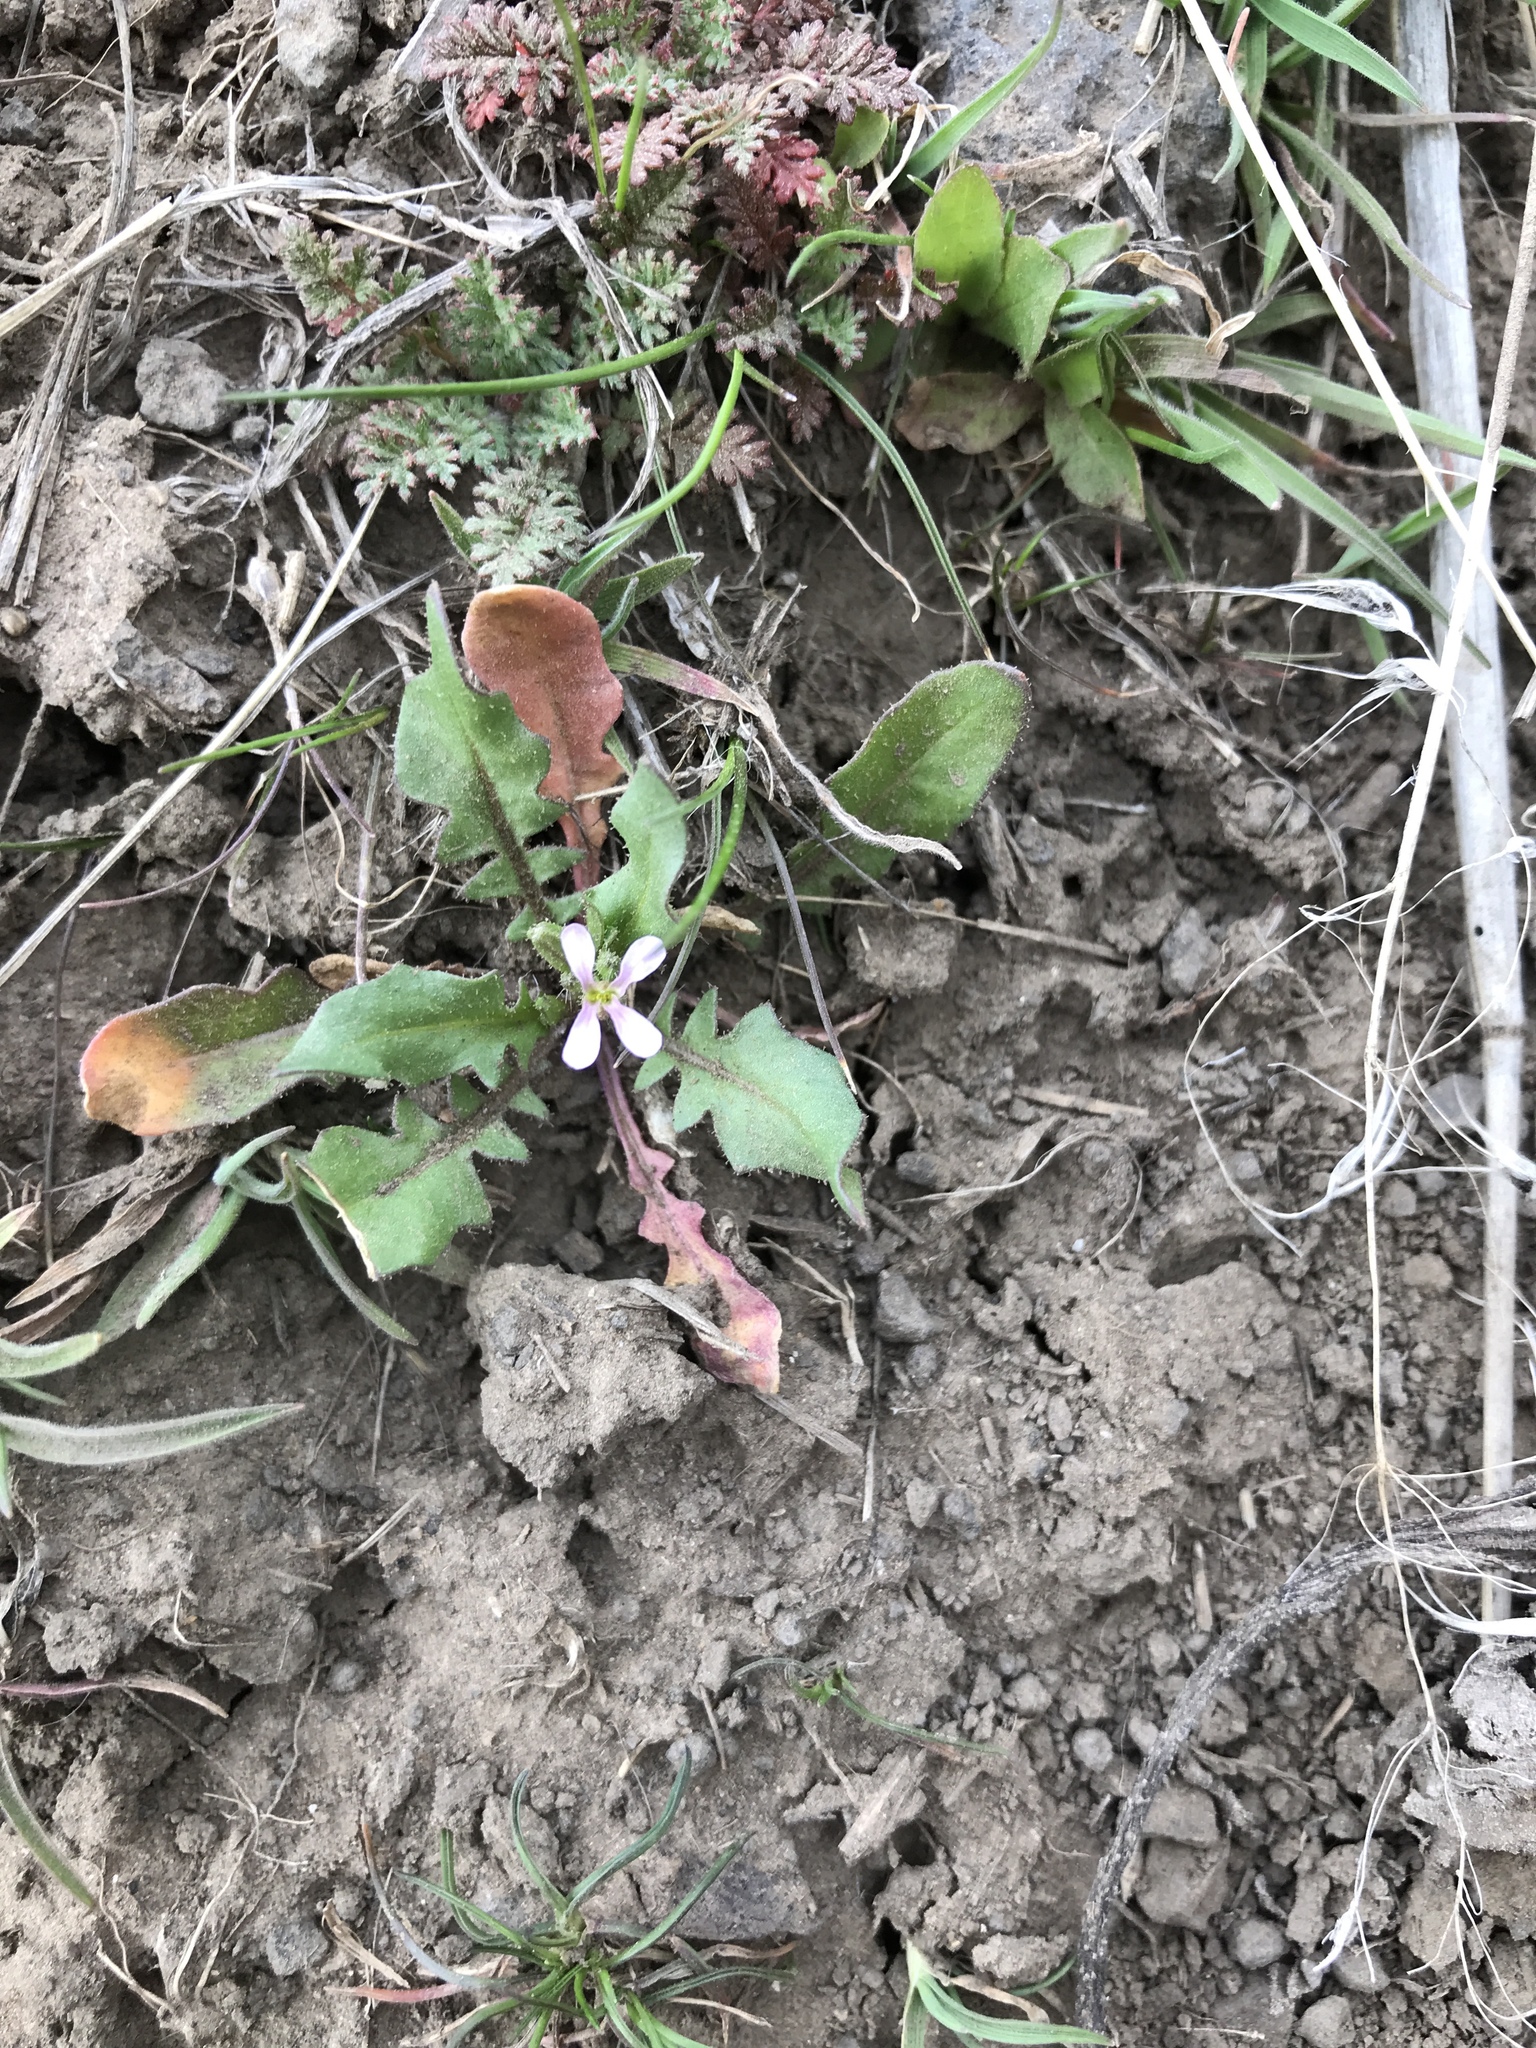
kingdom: Plantae
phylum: Tracheophyta
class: Magnoliopsida
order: Brassicales
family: Brassicaceae
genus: Chorispora
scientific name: Chorispora tenella
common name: Crossflower
